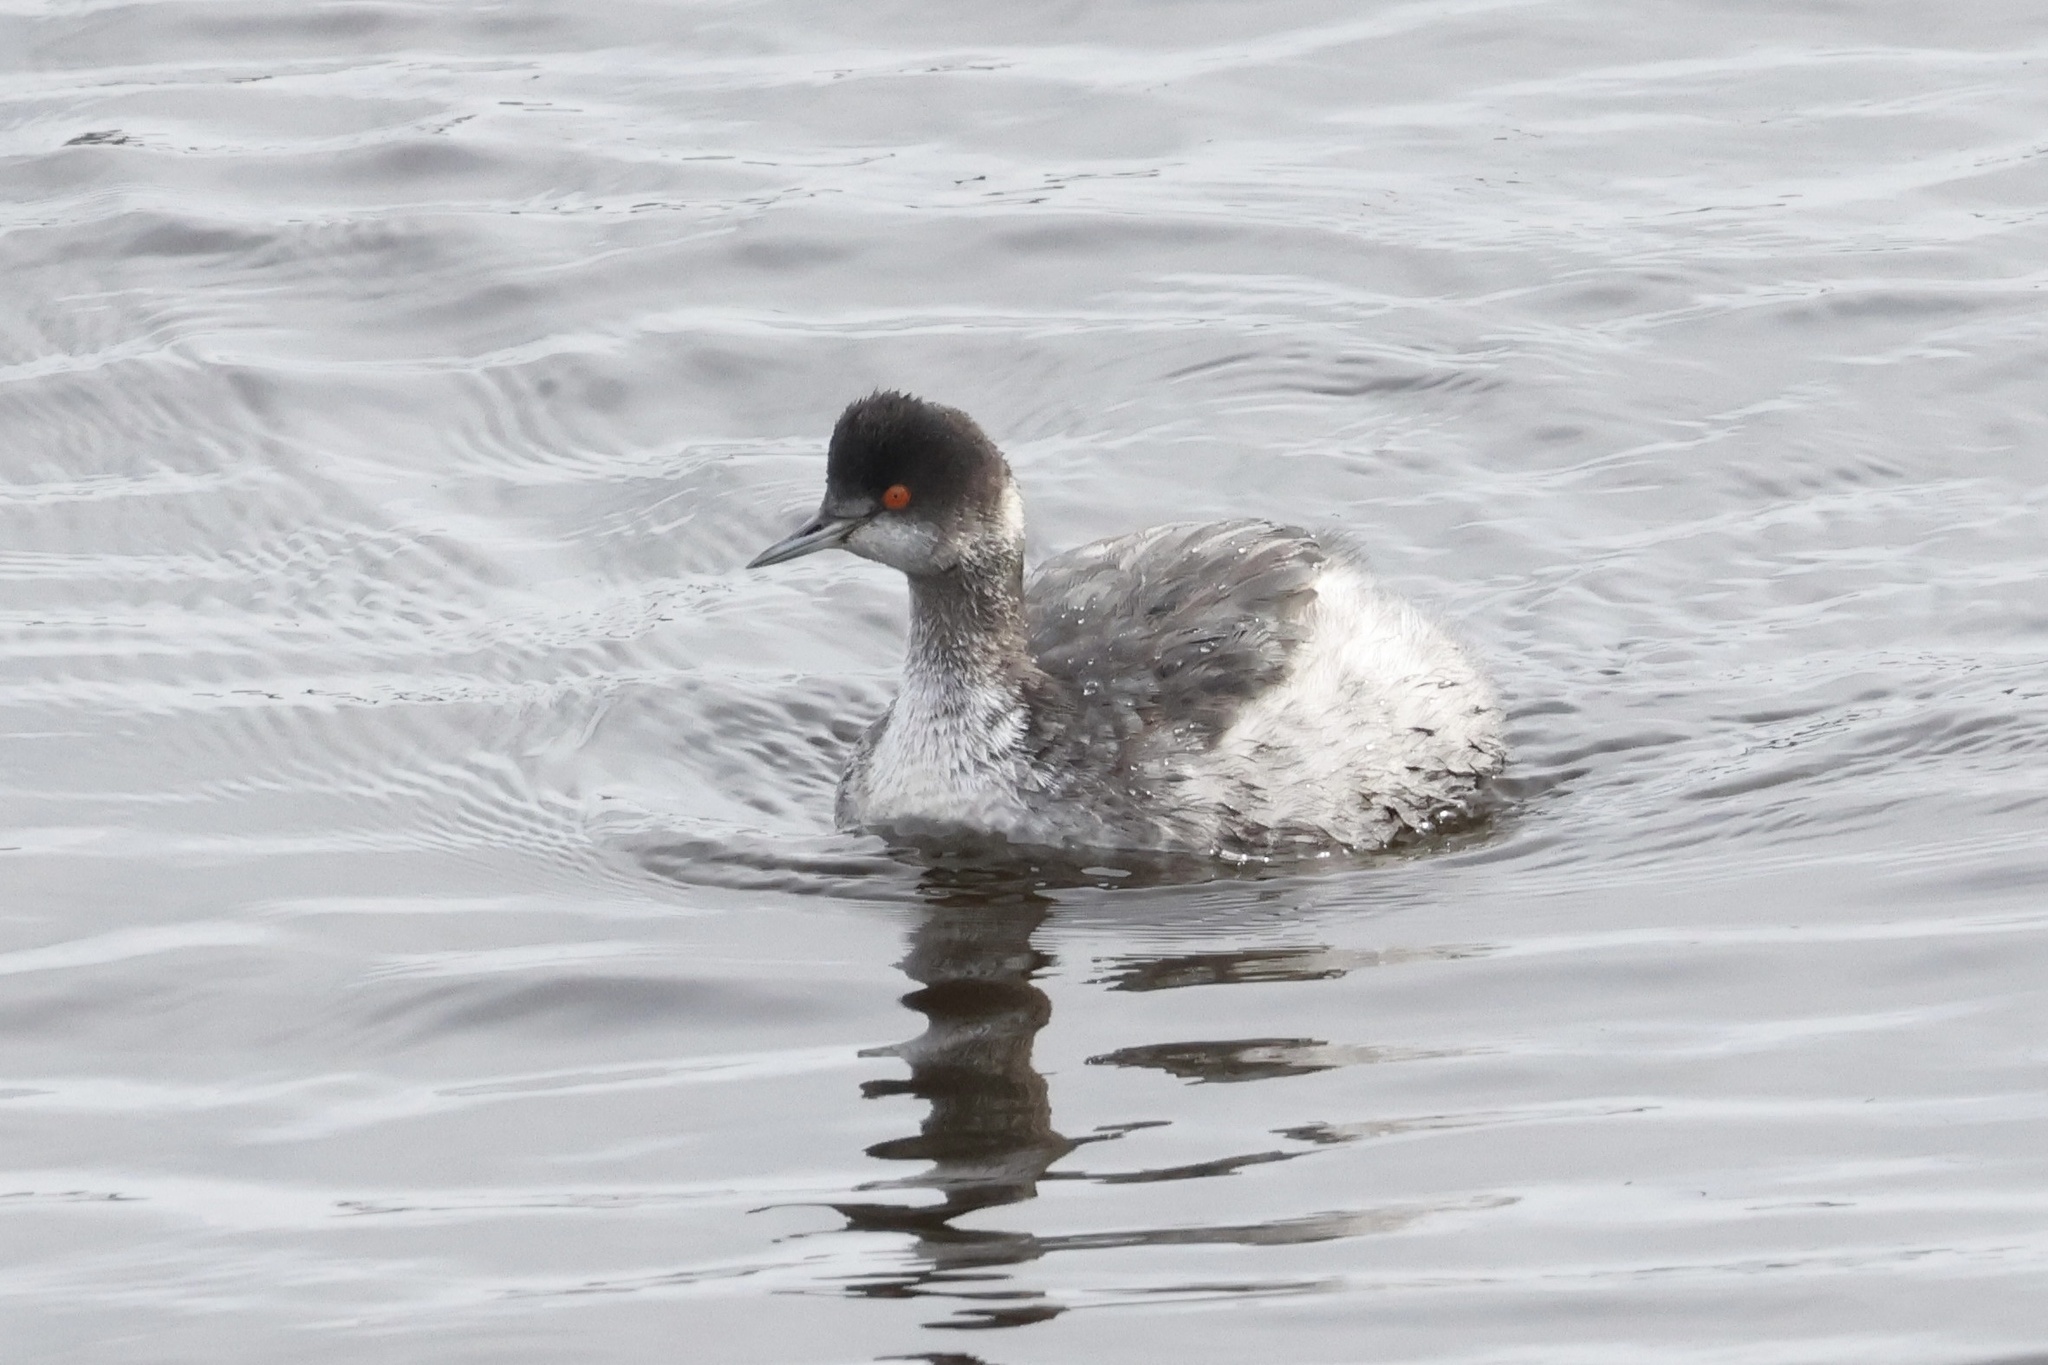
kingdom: Animalia
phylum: Chordata
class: Aves
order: Podicipediformes
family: Podicipedidae
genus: Podiceps
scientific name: Podiceps nigricollis
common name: Black-necked grebe
